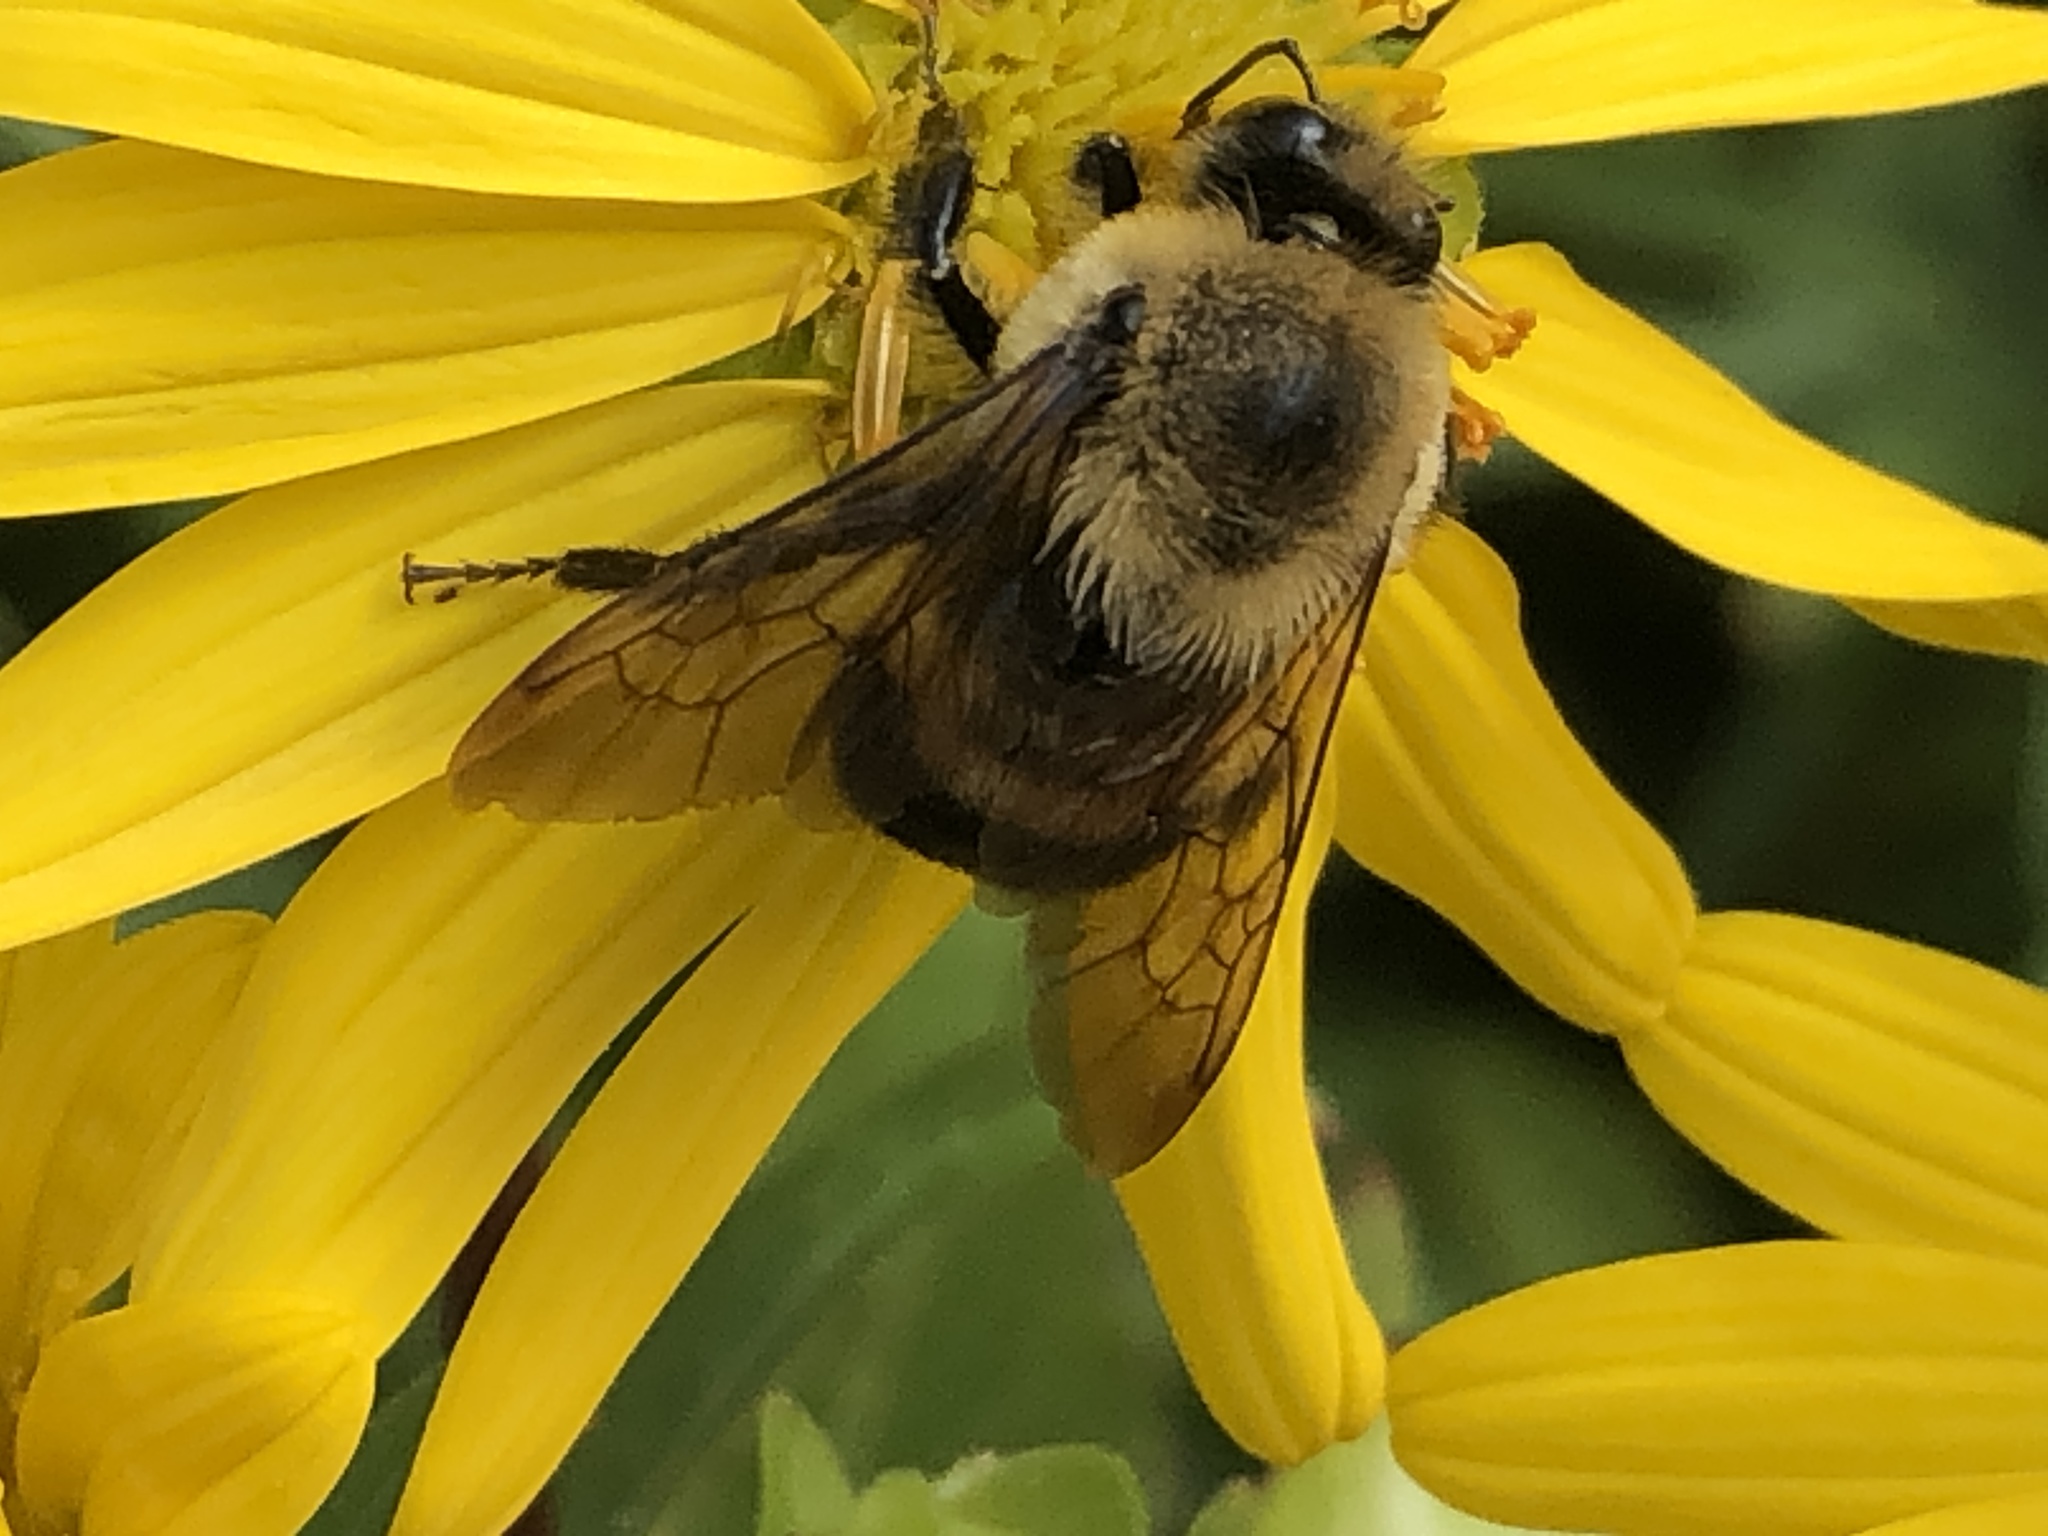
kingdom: Animalia
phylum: Arthropoda
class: Insecta
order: Hymenoptera
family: Apidae
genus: Bombus
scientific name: Bombus griseocollis
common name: Brown-belted bumble bee
